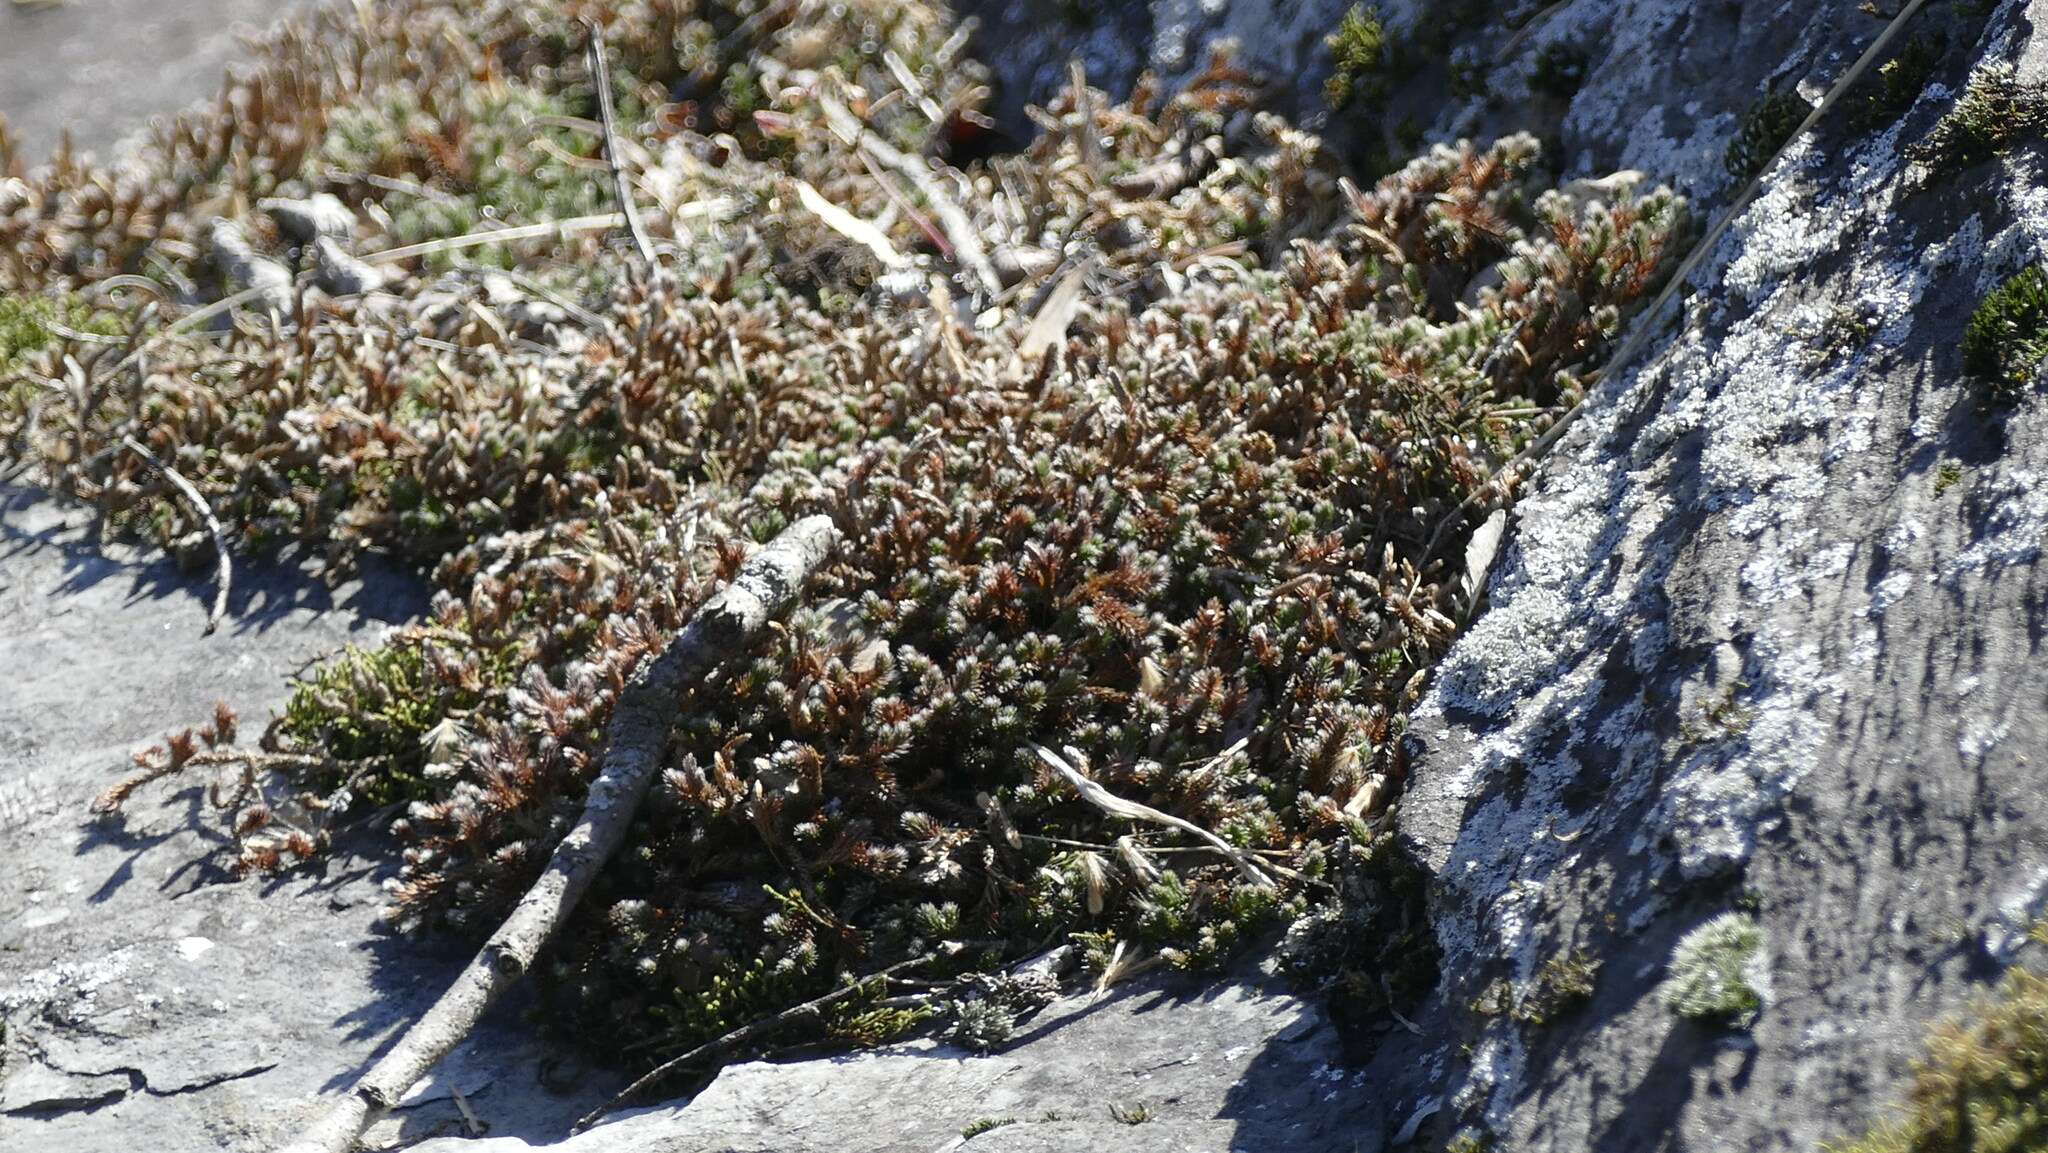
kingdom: Plantae
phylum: Tracheophyta
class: Lycopodiopsida
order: Selaginellales
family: Selaginellaceae
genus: Selaginella
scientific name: Selaginella rupestris
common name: Dwarf spikemoss
